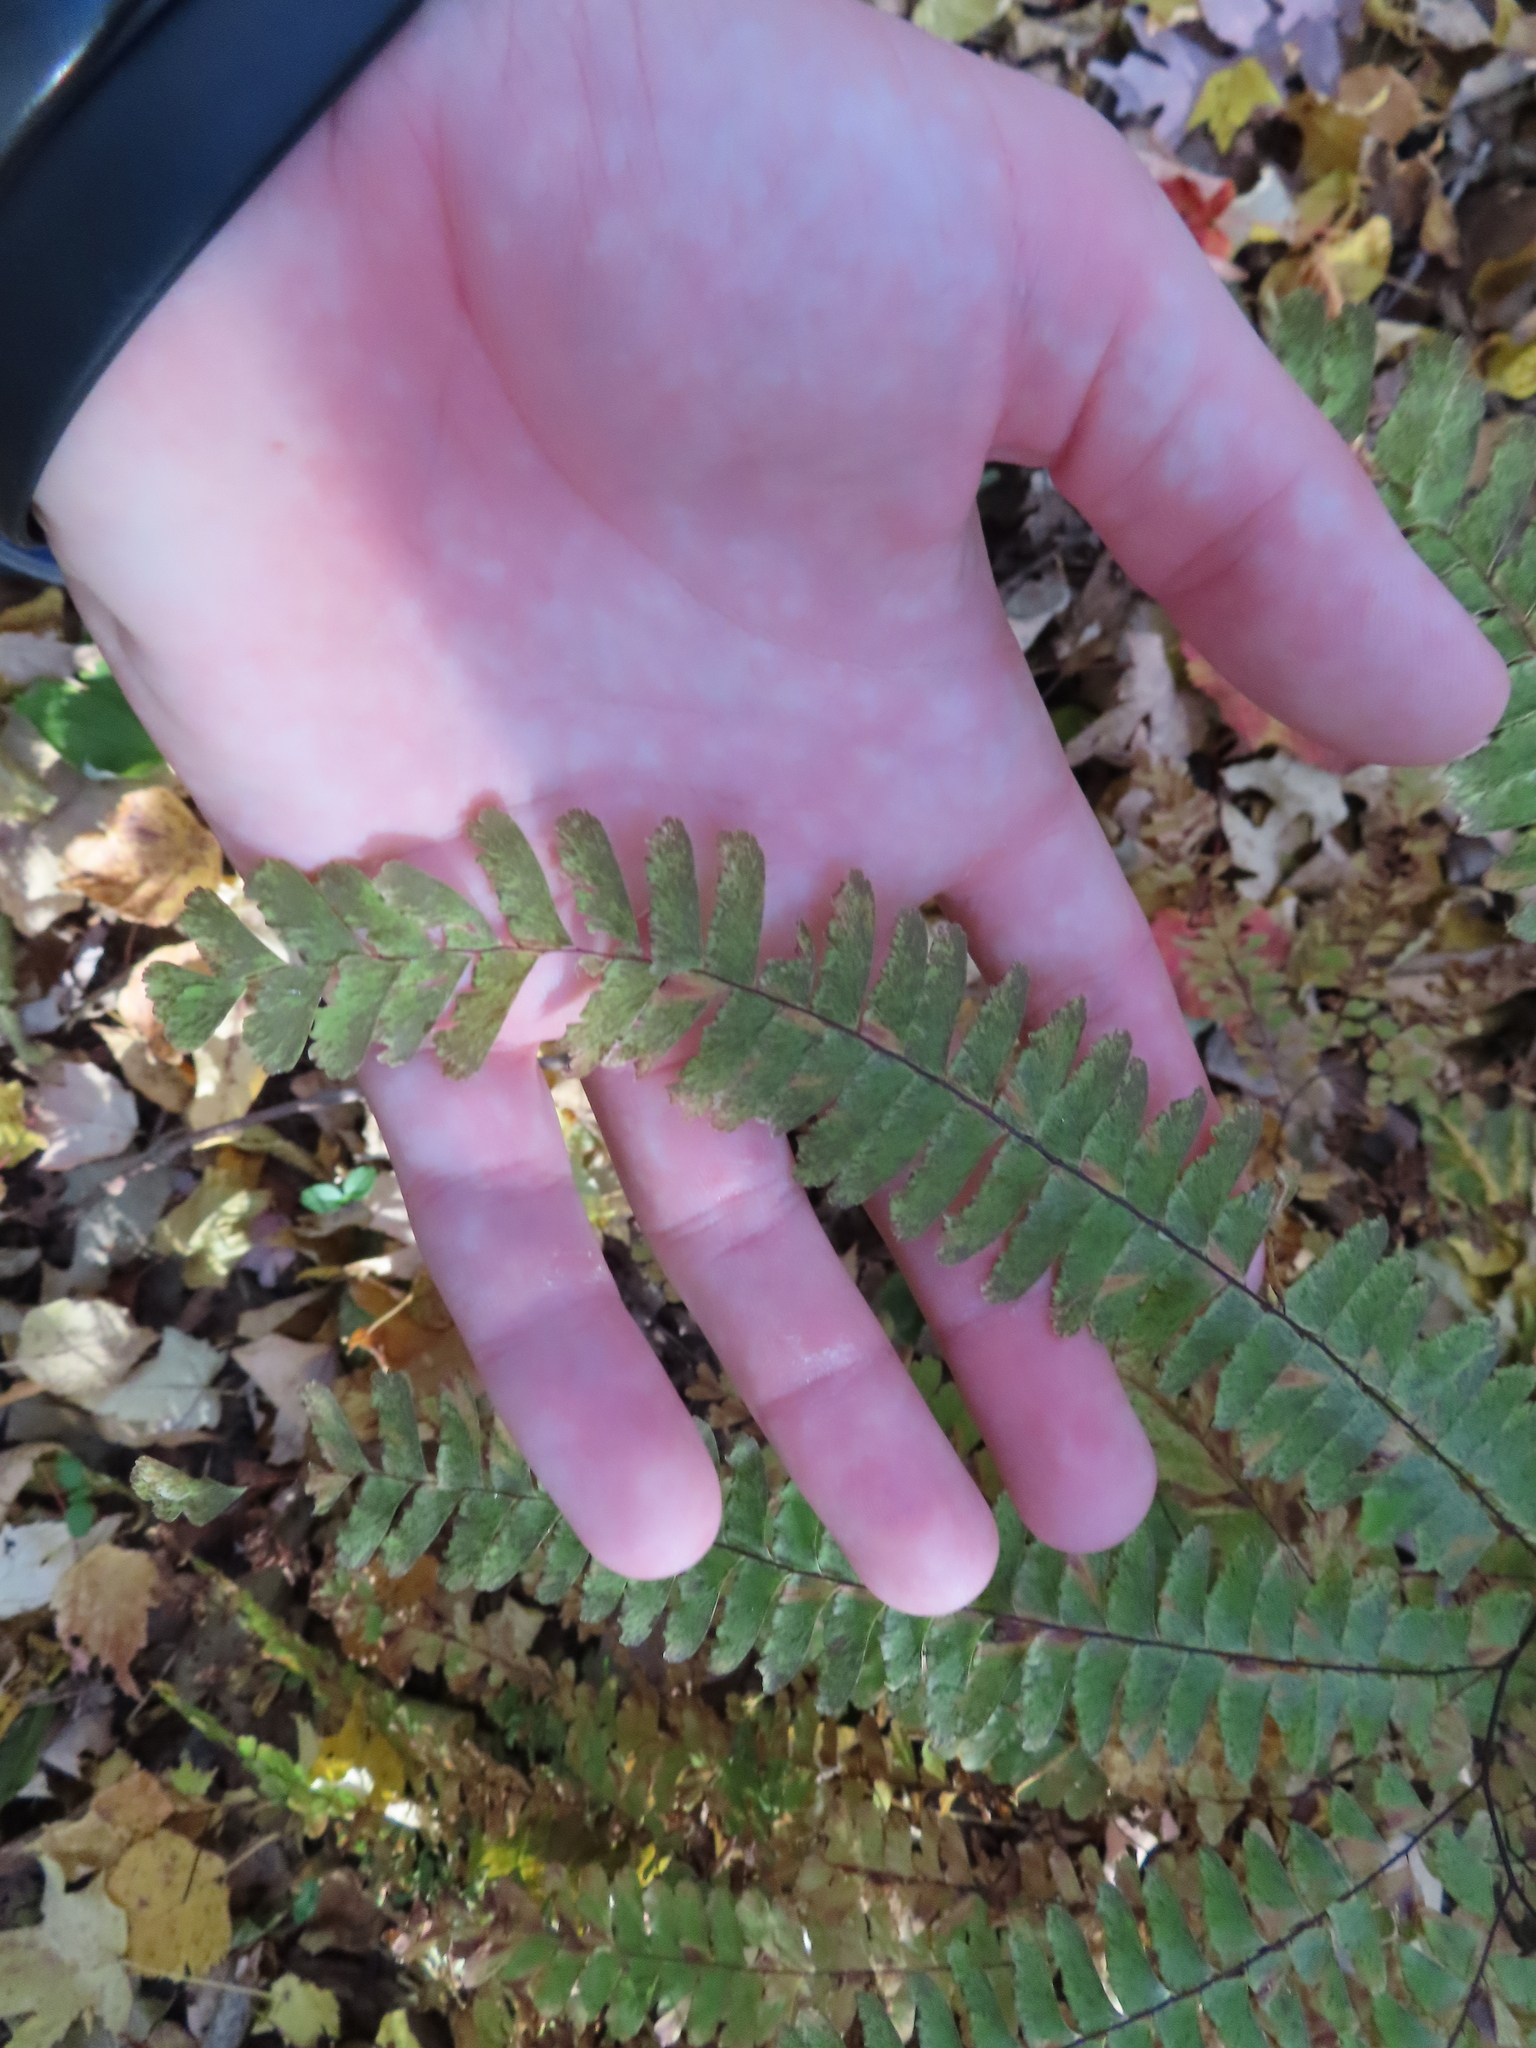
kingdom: Plantae
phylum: Tracheophyta
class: Polypodiopsida
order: Polypodiales
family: Pteridaceae
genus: Adiantum
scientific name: Adiantum pedatum
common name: Five-finger fern
